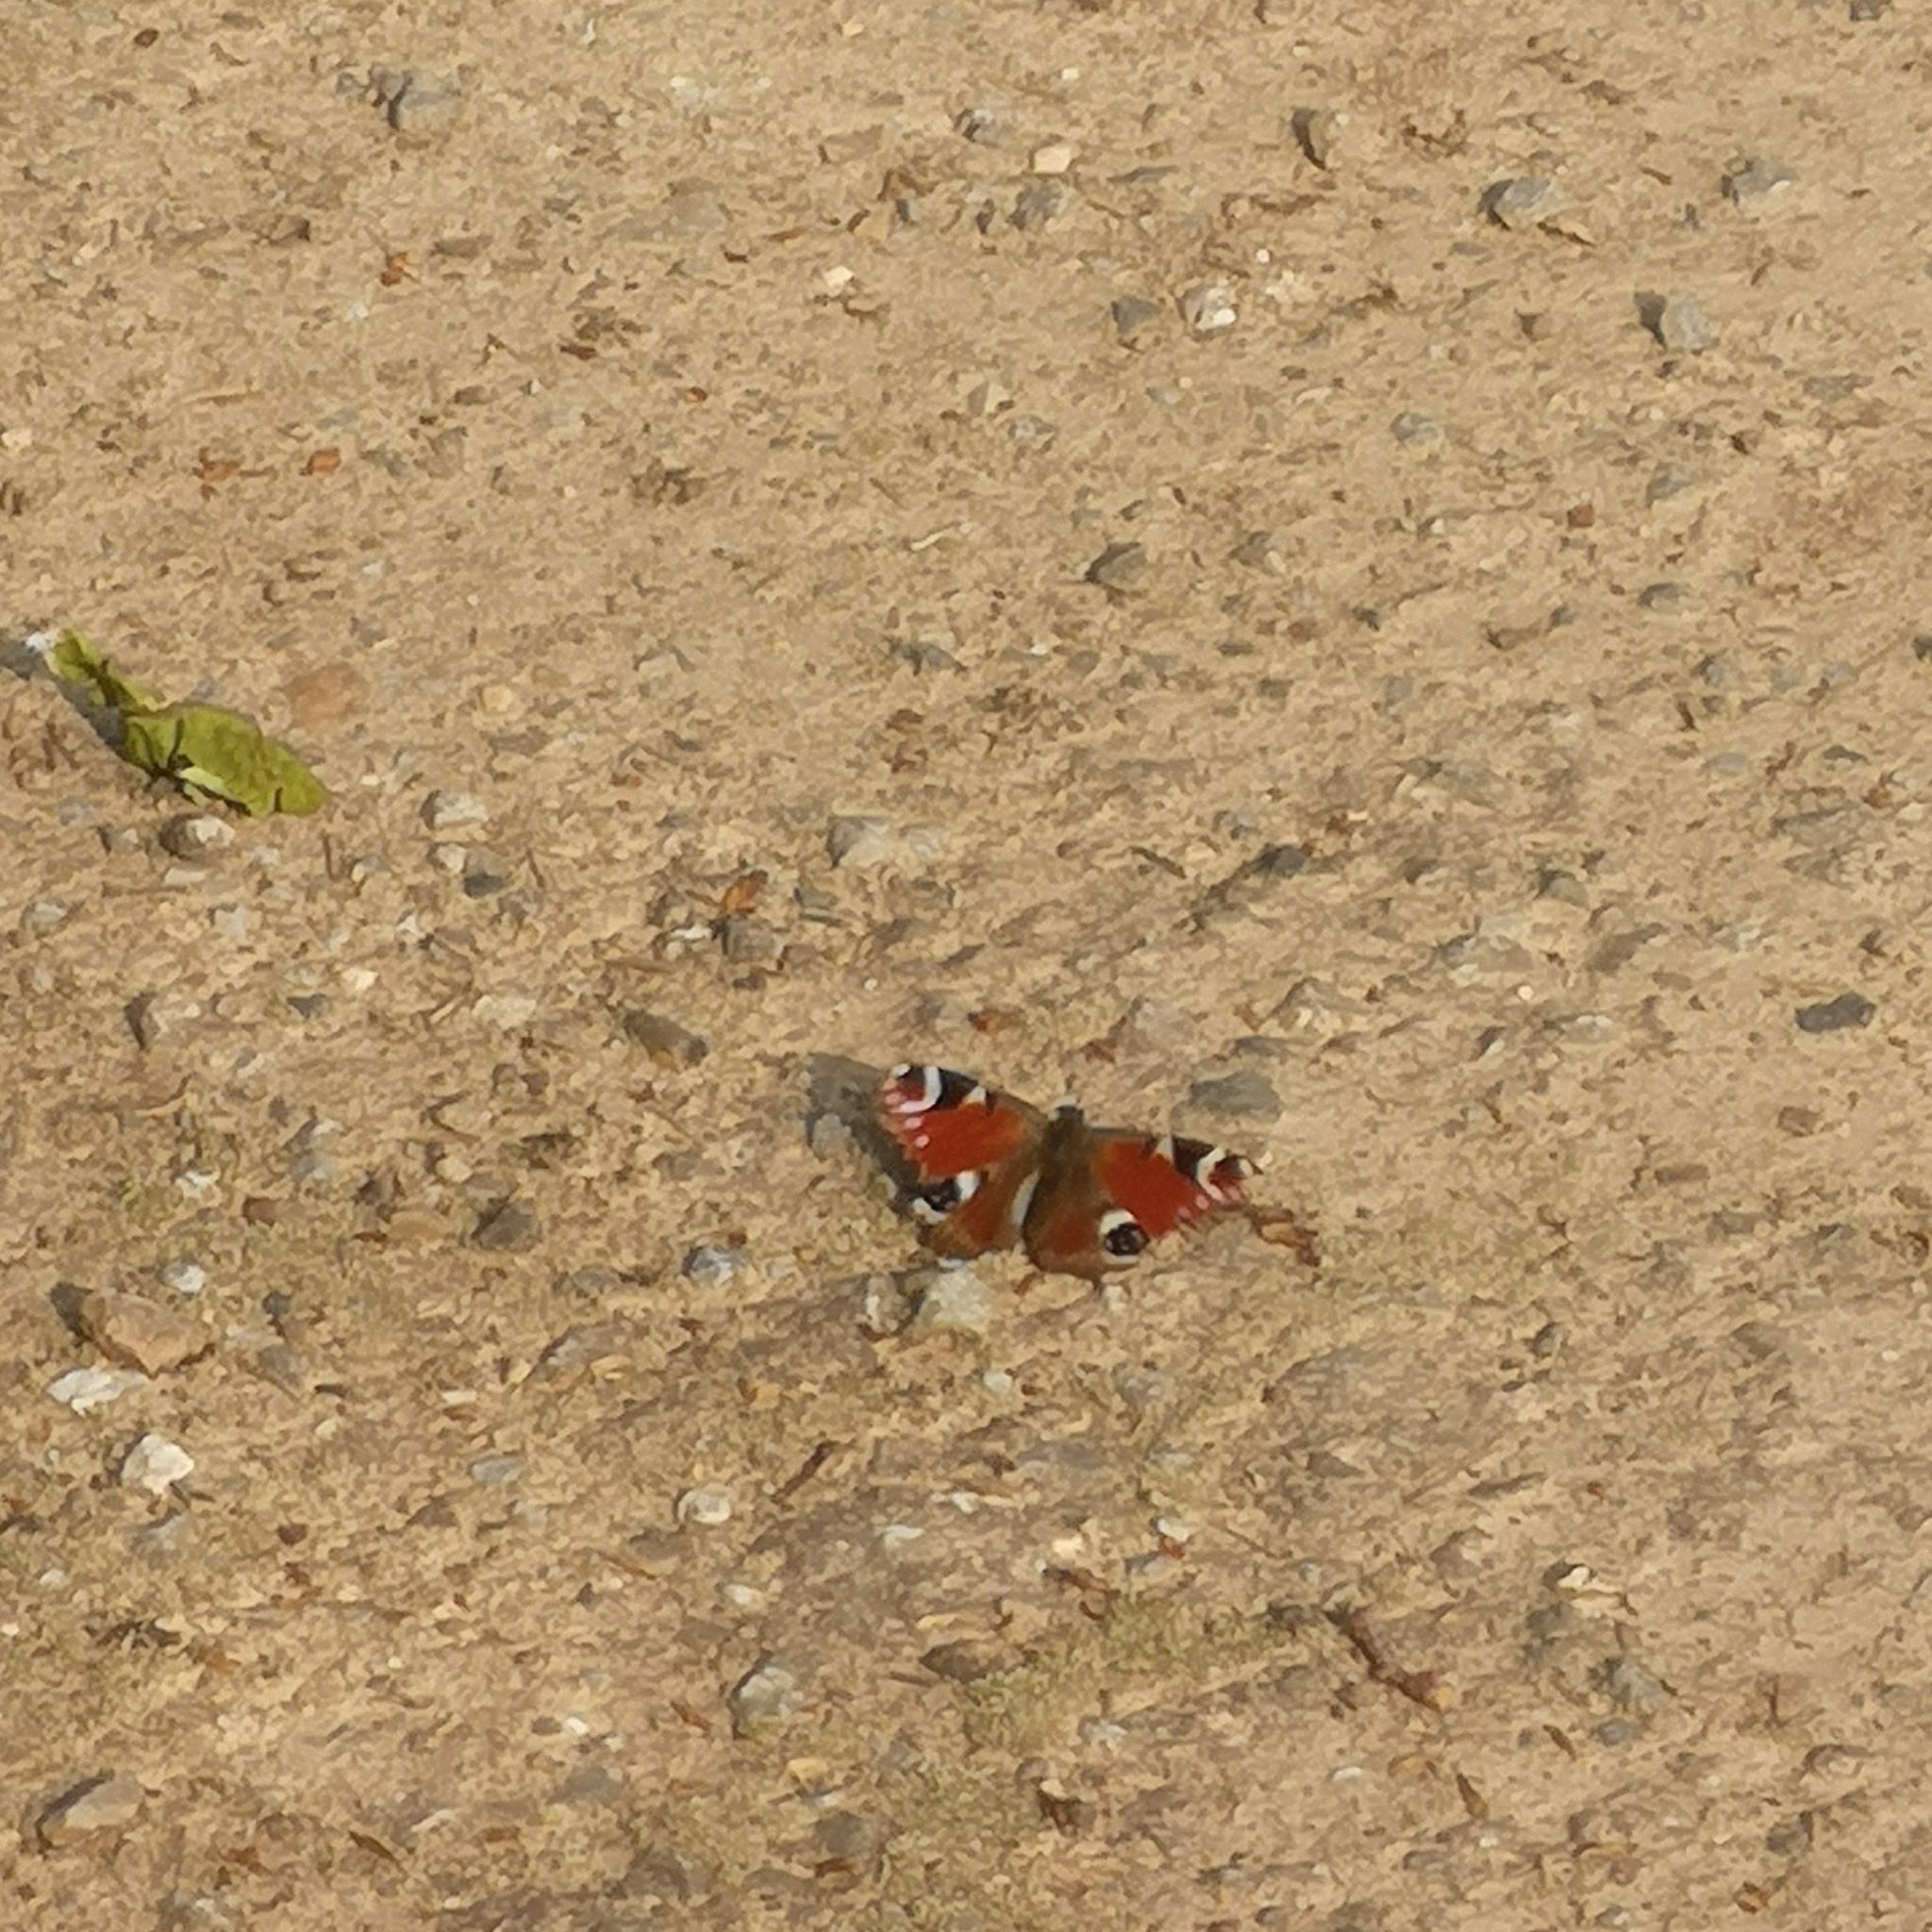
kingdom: Animalia
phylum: Arthropoda
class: Insecta
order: Lepidoptera
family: Nymphalidae
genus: Aglais
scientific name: Aglais io
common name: Peacock
